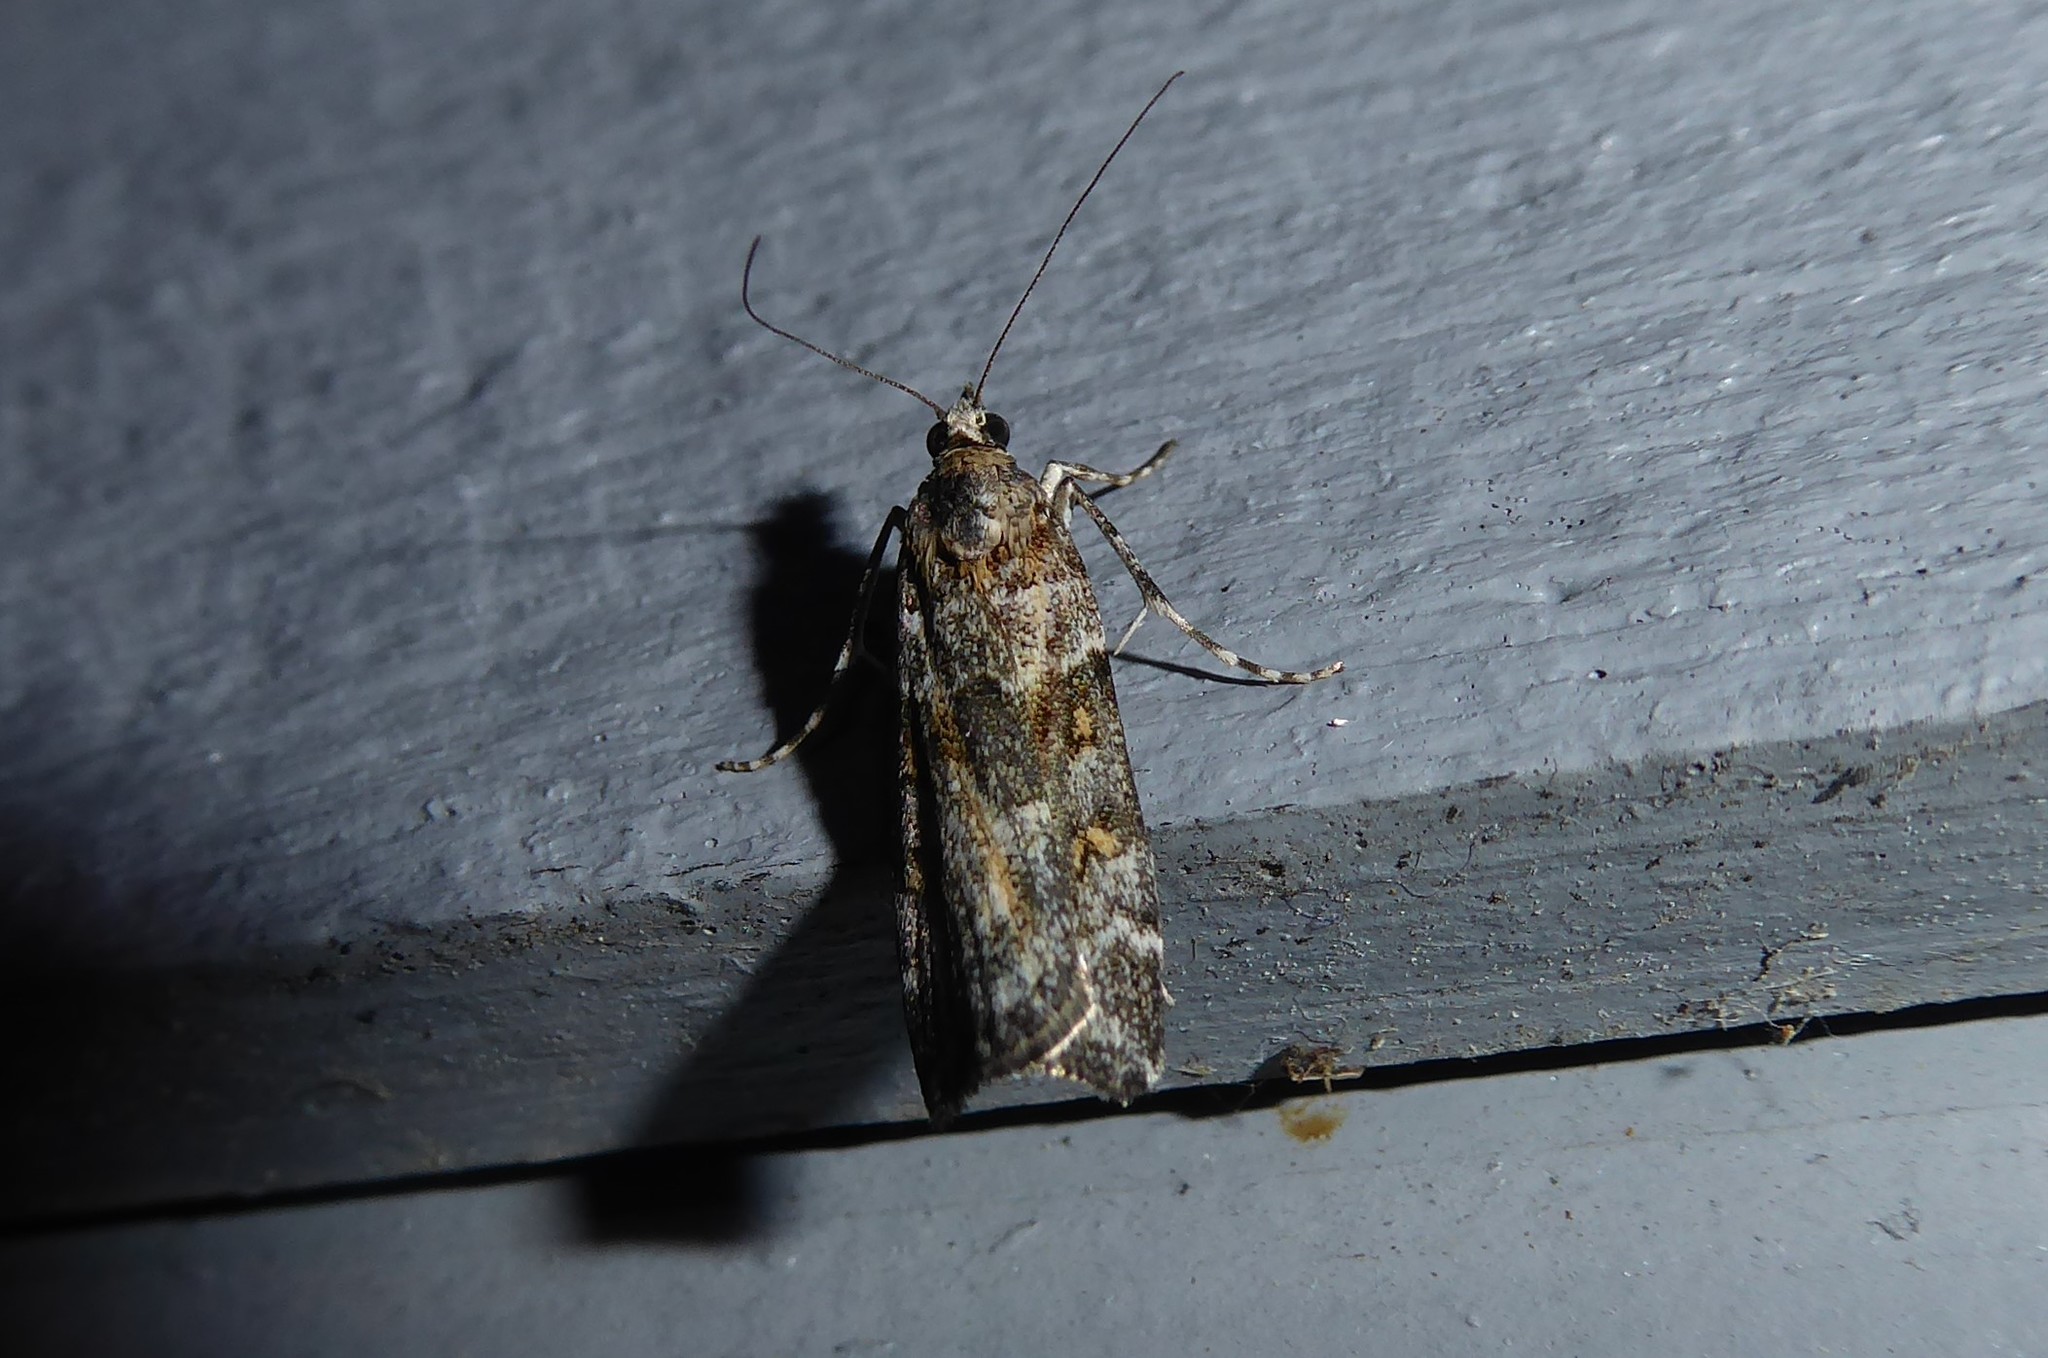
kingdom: Animalia
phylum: Arthropoda
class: Insecta
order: Lepidoptera
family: Crambidae
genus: Eudonia
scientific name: Eudonia diphtheralis
